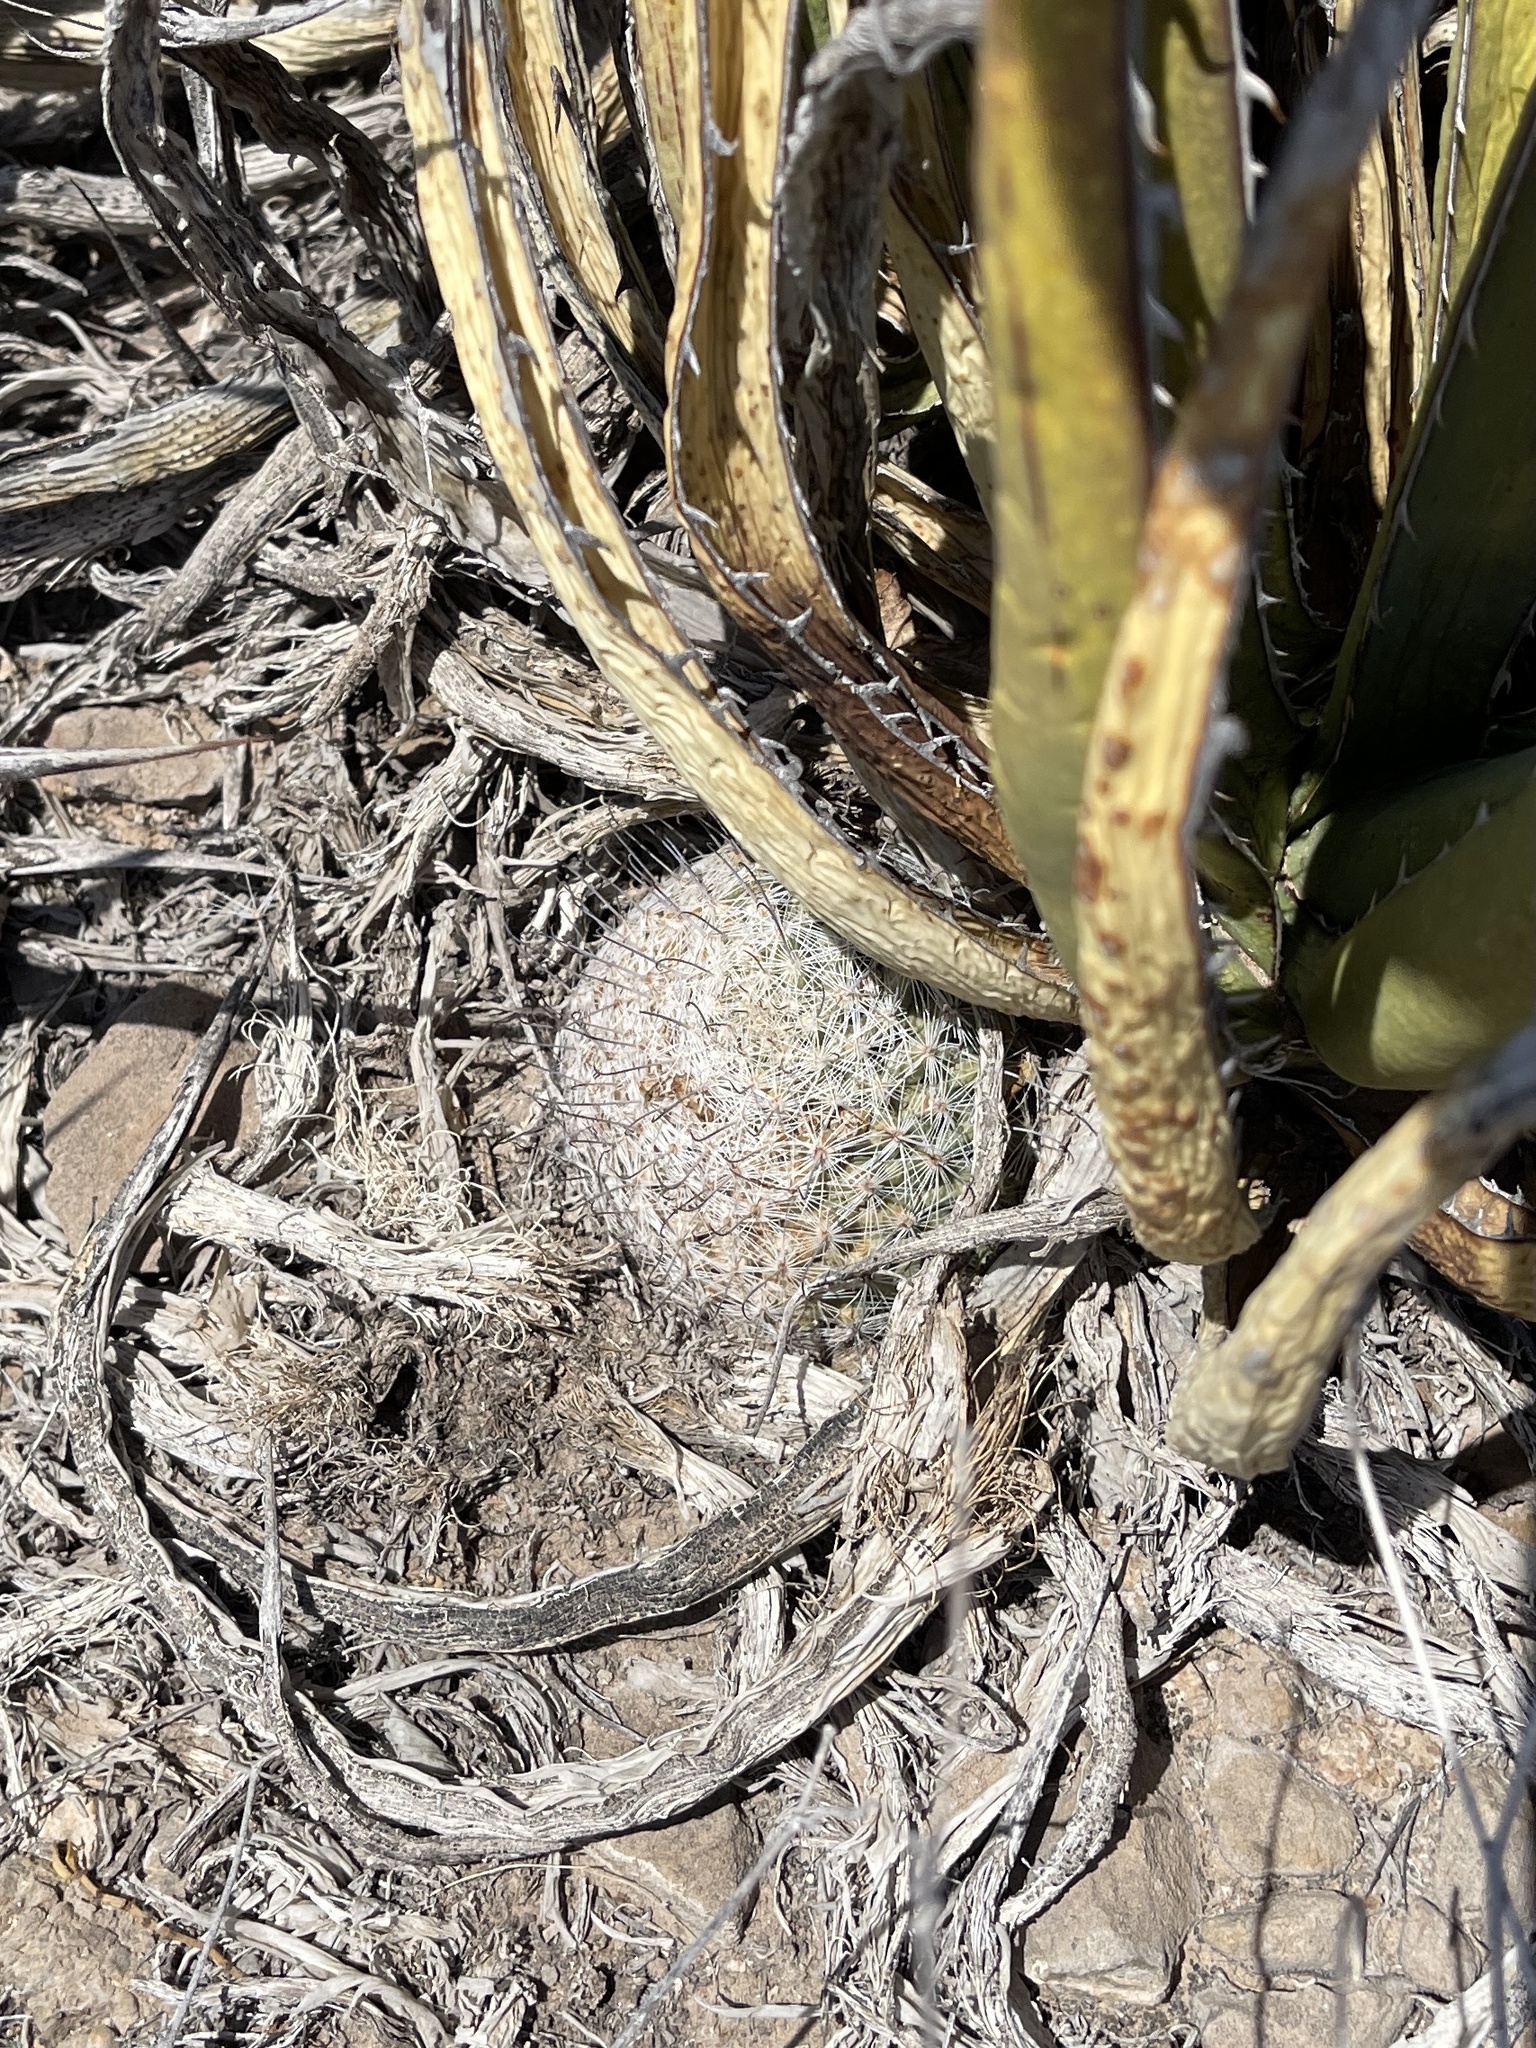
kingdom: Plantae
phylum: Tracheophyta
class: Magnoliopsida
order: Caryophyllales
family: Cactaceae
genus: Cochemiea
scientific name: Cochemiea grahamii
